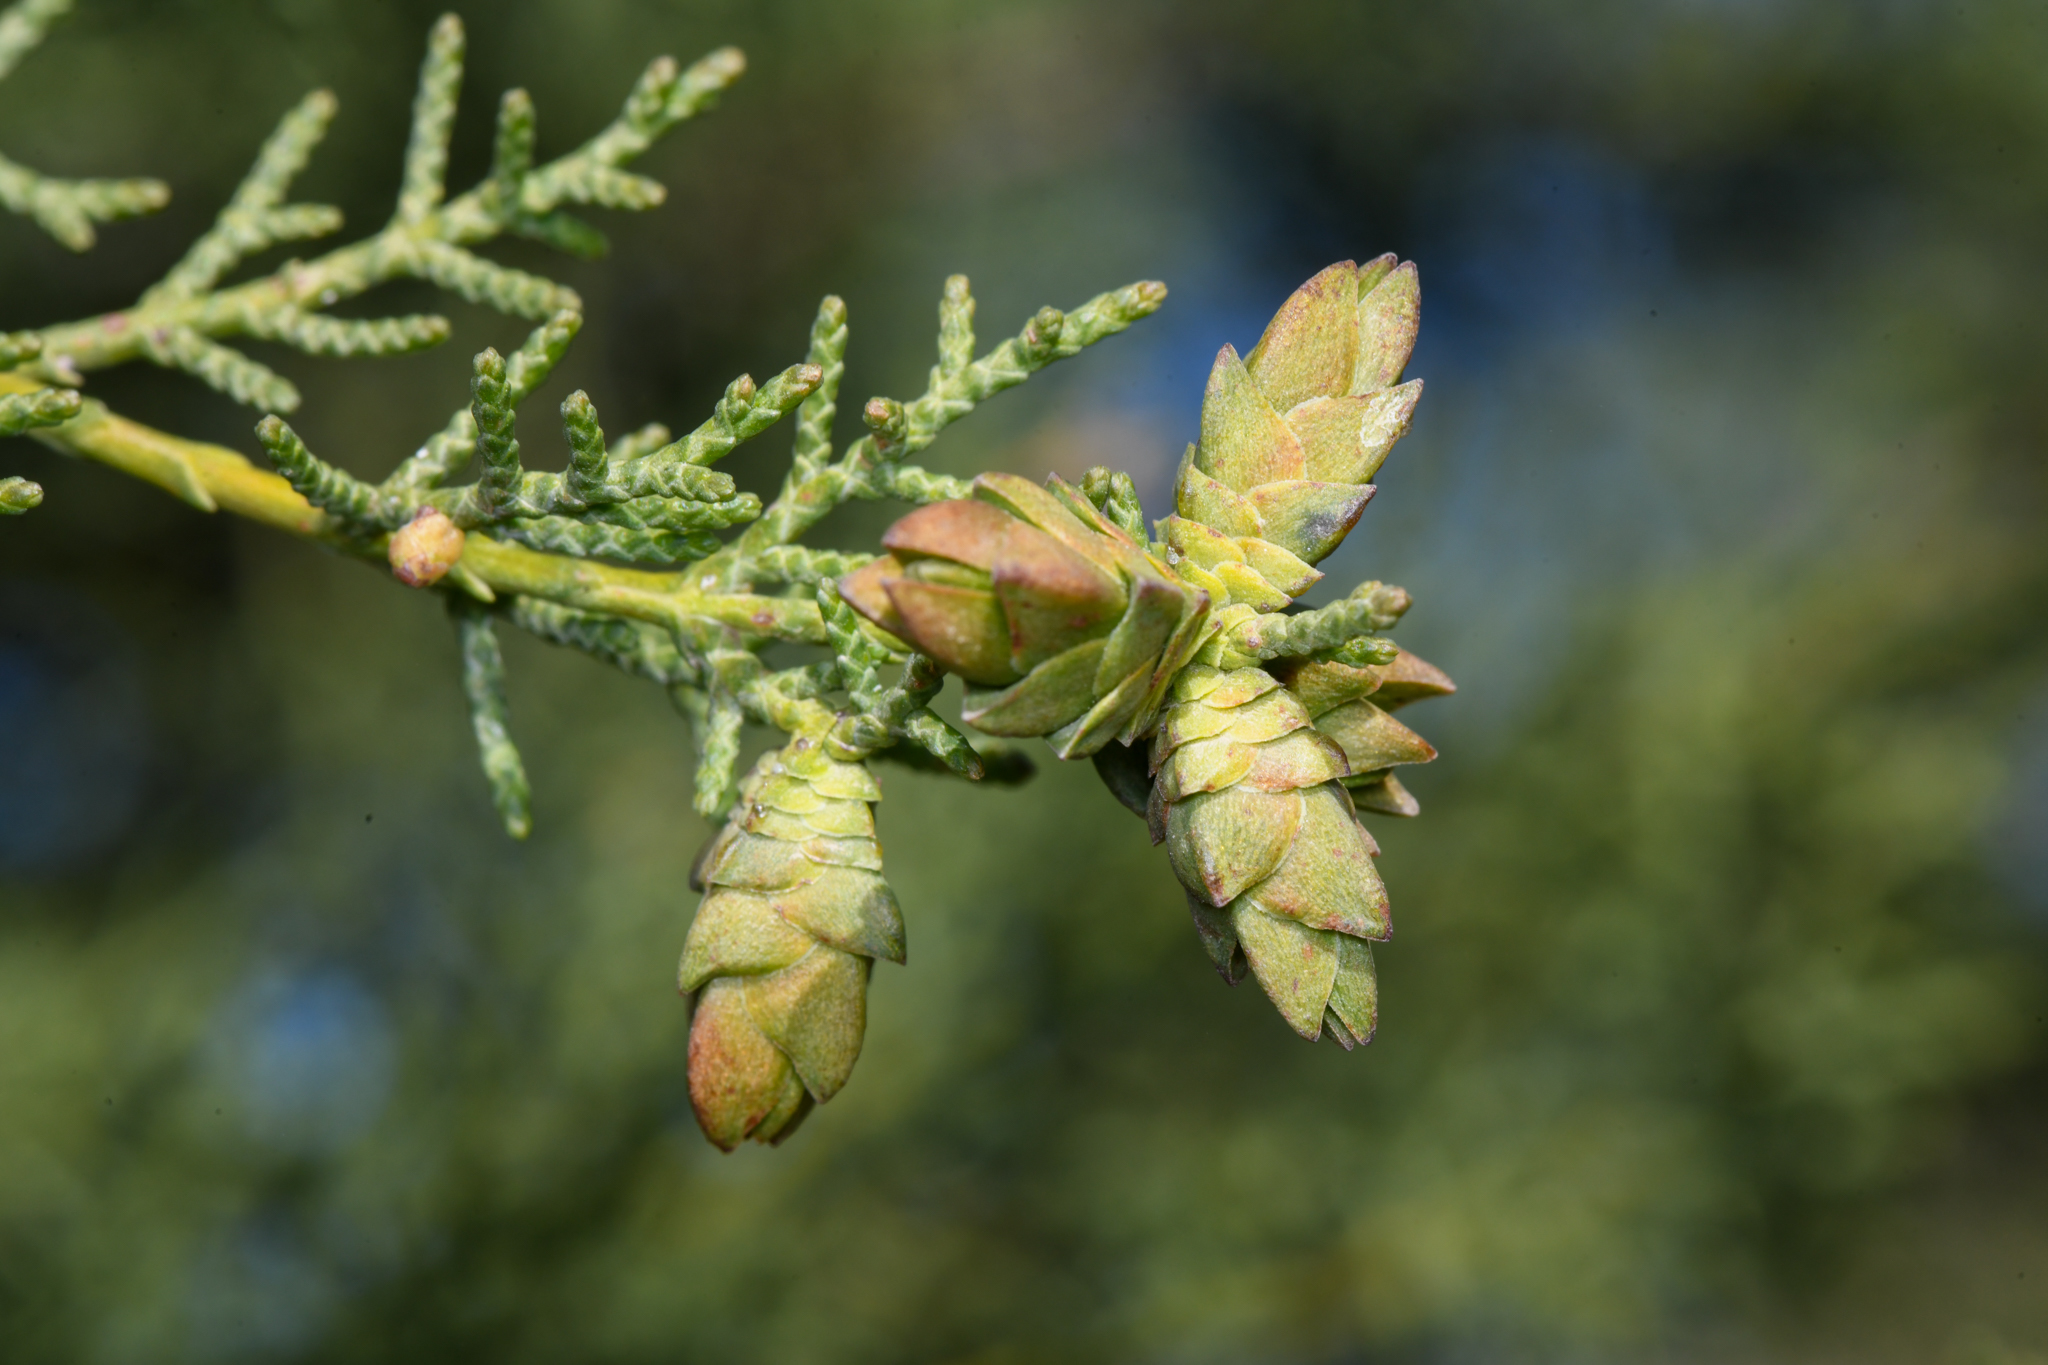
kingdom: Animalia
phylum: Arthropoda
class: Insecta
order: Diptera
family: Cecidomyiidae
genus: Oligotrophus
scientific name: Oligotrophus cupressi
